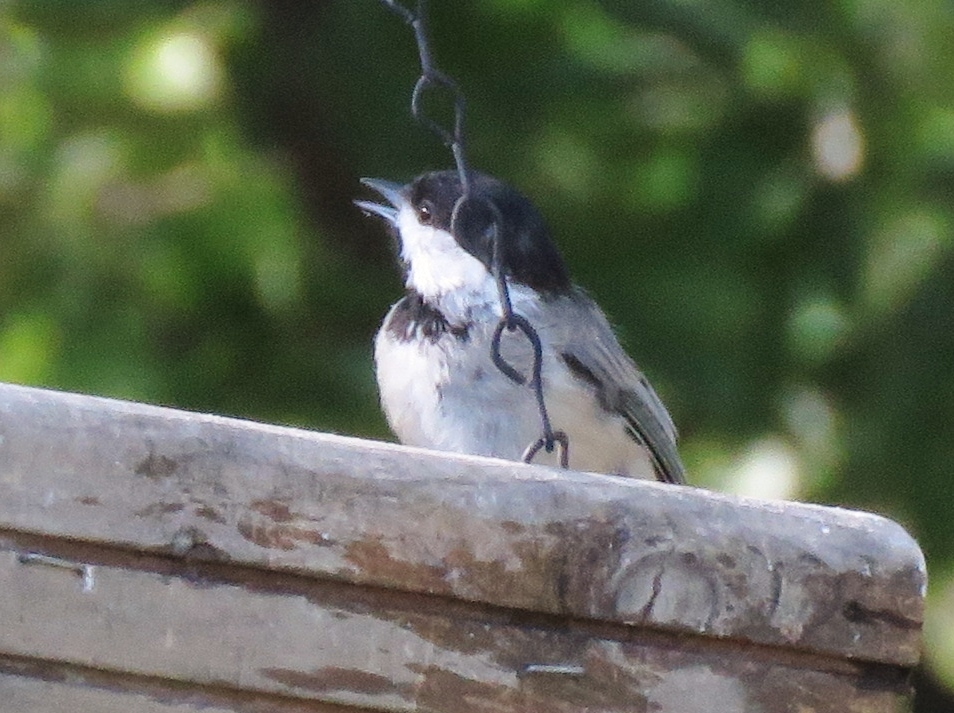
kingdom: Animalia
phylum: Chordata
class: Aves
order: Passeriformes
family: Paridae
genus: Poecile
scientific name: Poecile carolinensis
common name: Carolina chickadee
